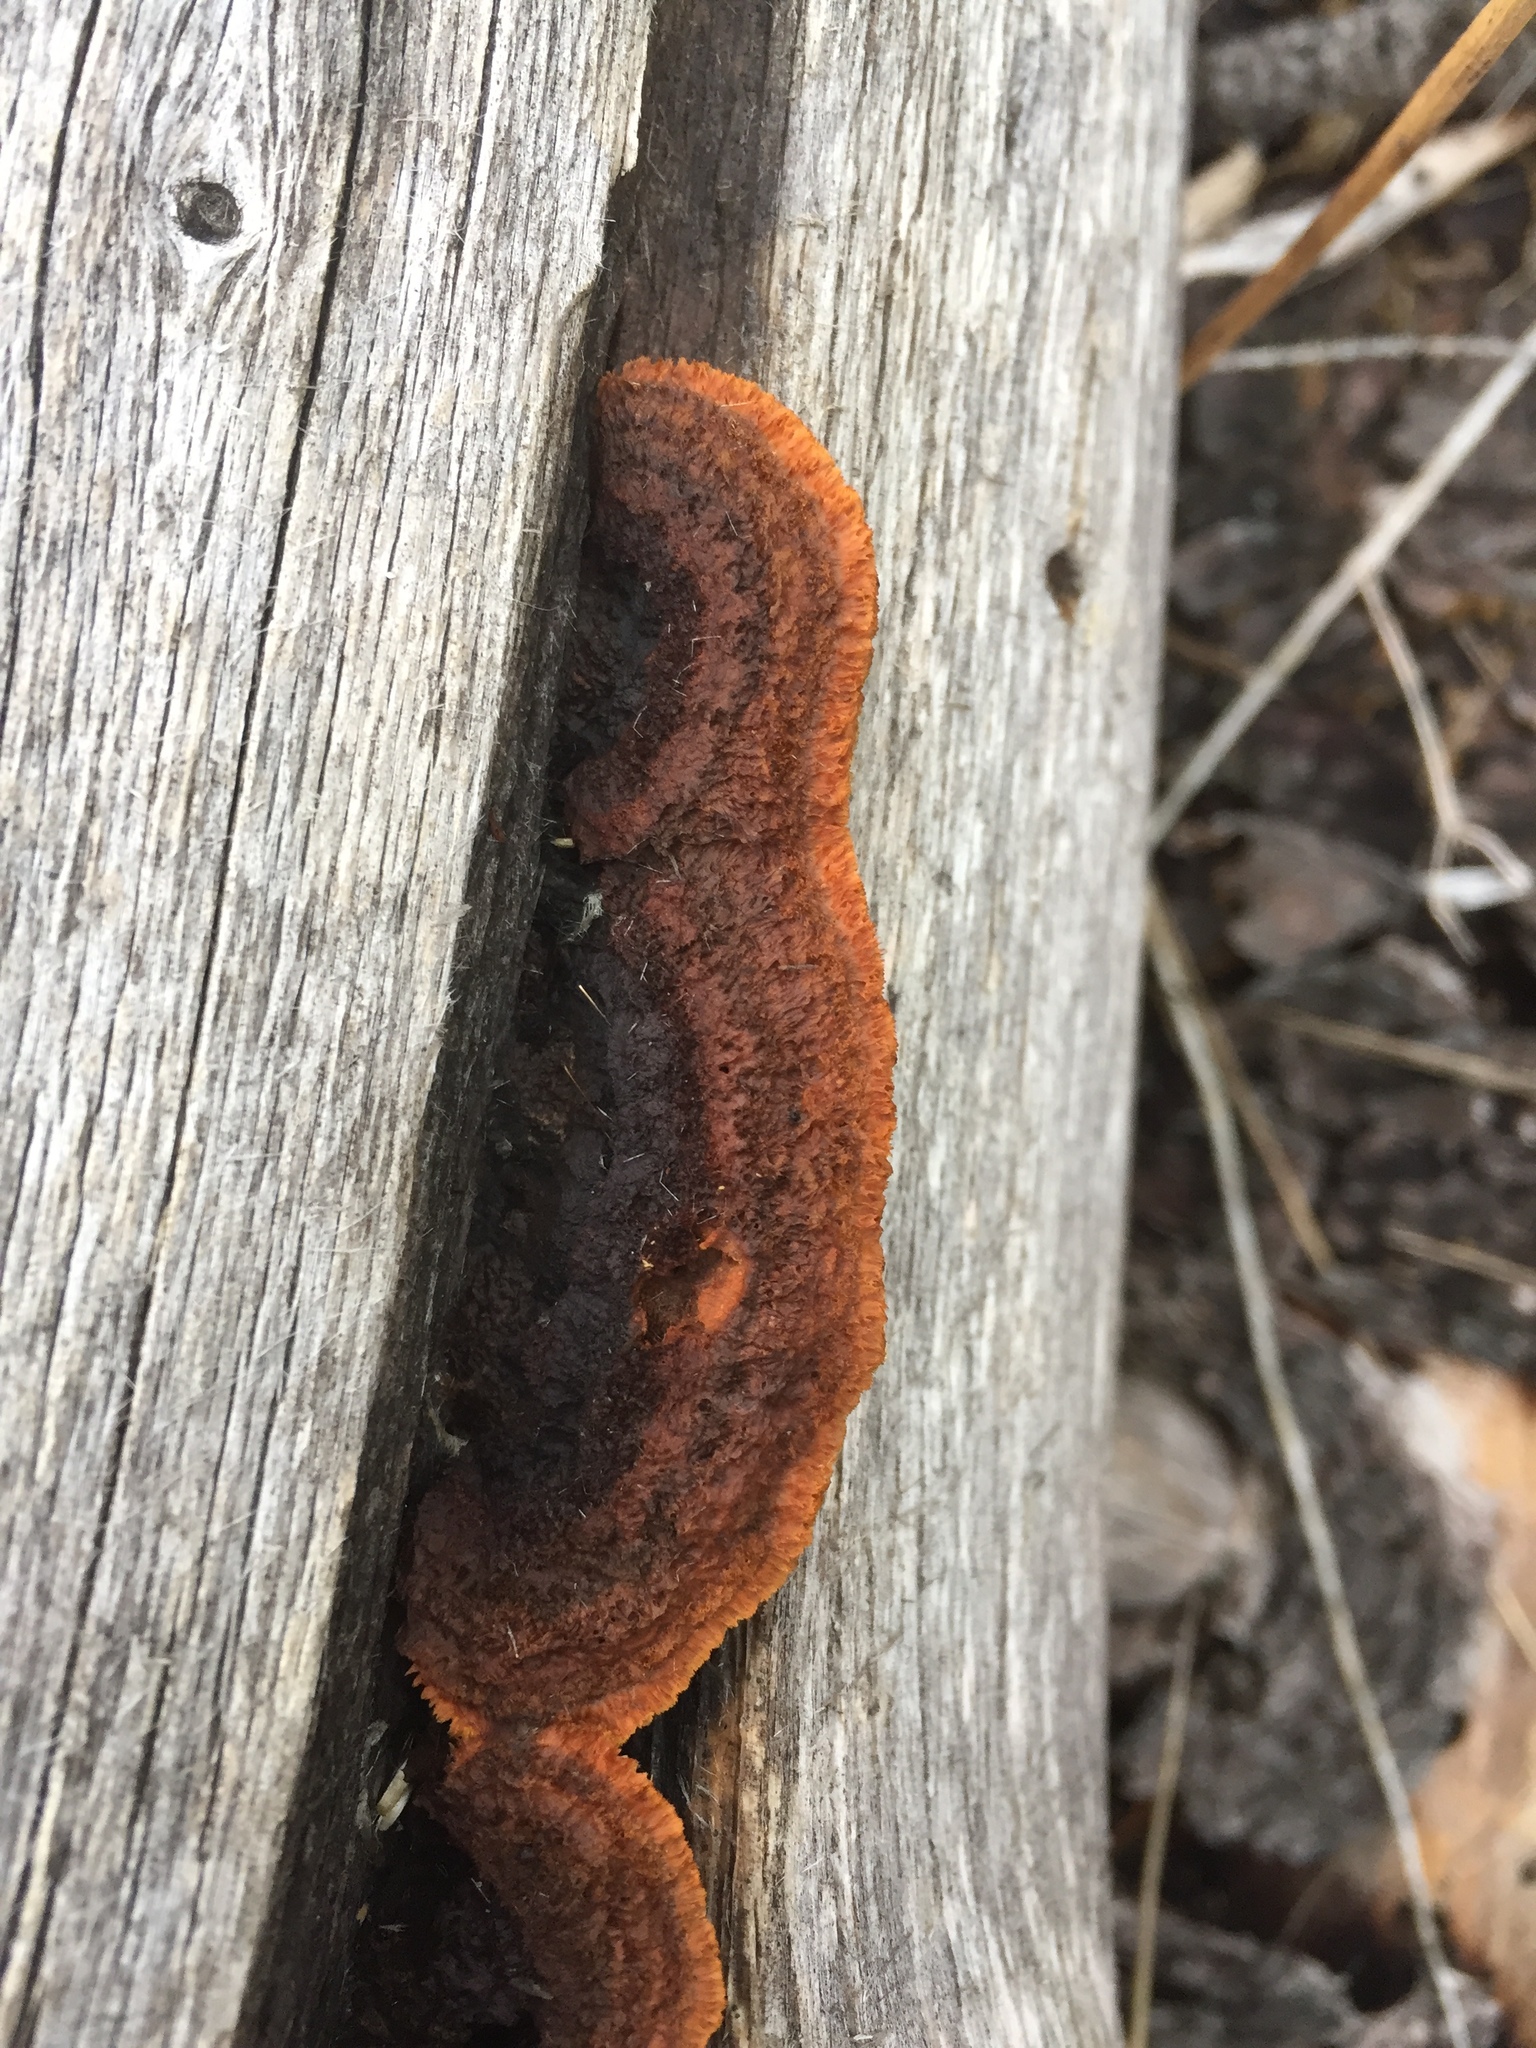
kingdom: Fungi
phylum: Basidiomycota
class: Agaricomycetes
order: Gloeophyllales
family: Gloeophyllaceae
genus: Gloeophyllum
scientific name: Gloeophyllum sepiarium
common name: Conifer mazegill
